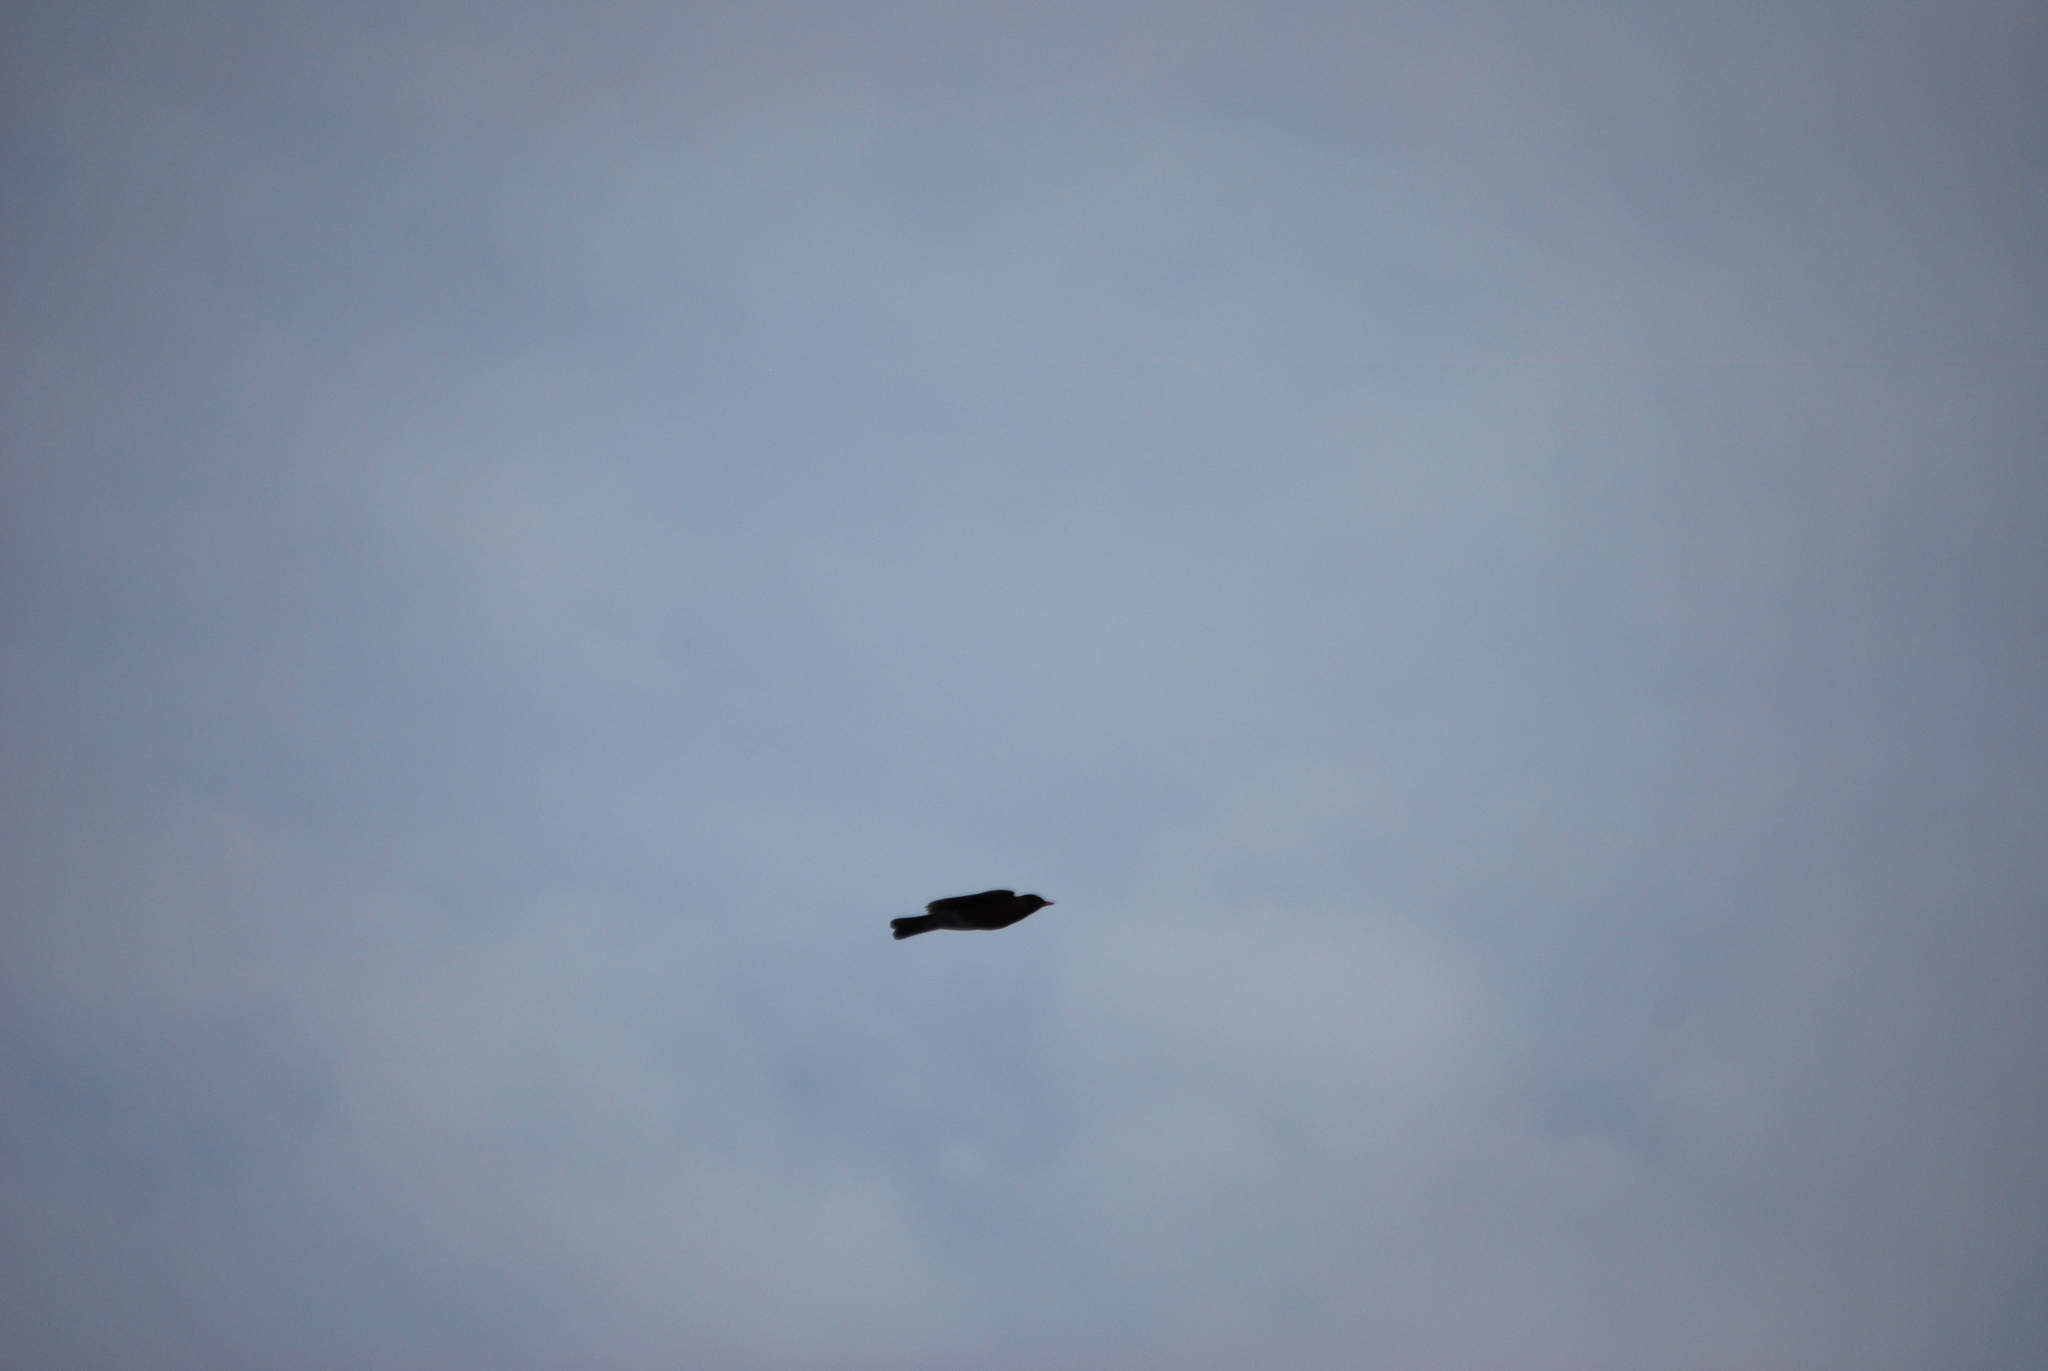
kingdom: Animalia
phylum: Chordata
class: Aves
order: Passeriformes
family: Turdidae
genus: Turdus
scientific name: Turdus migratorius
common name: American robin
